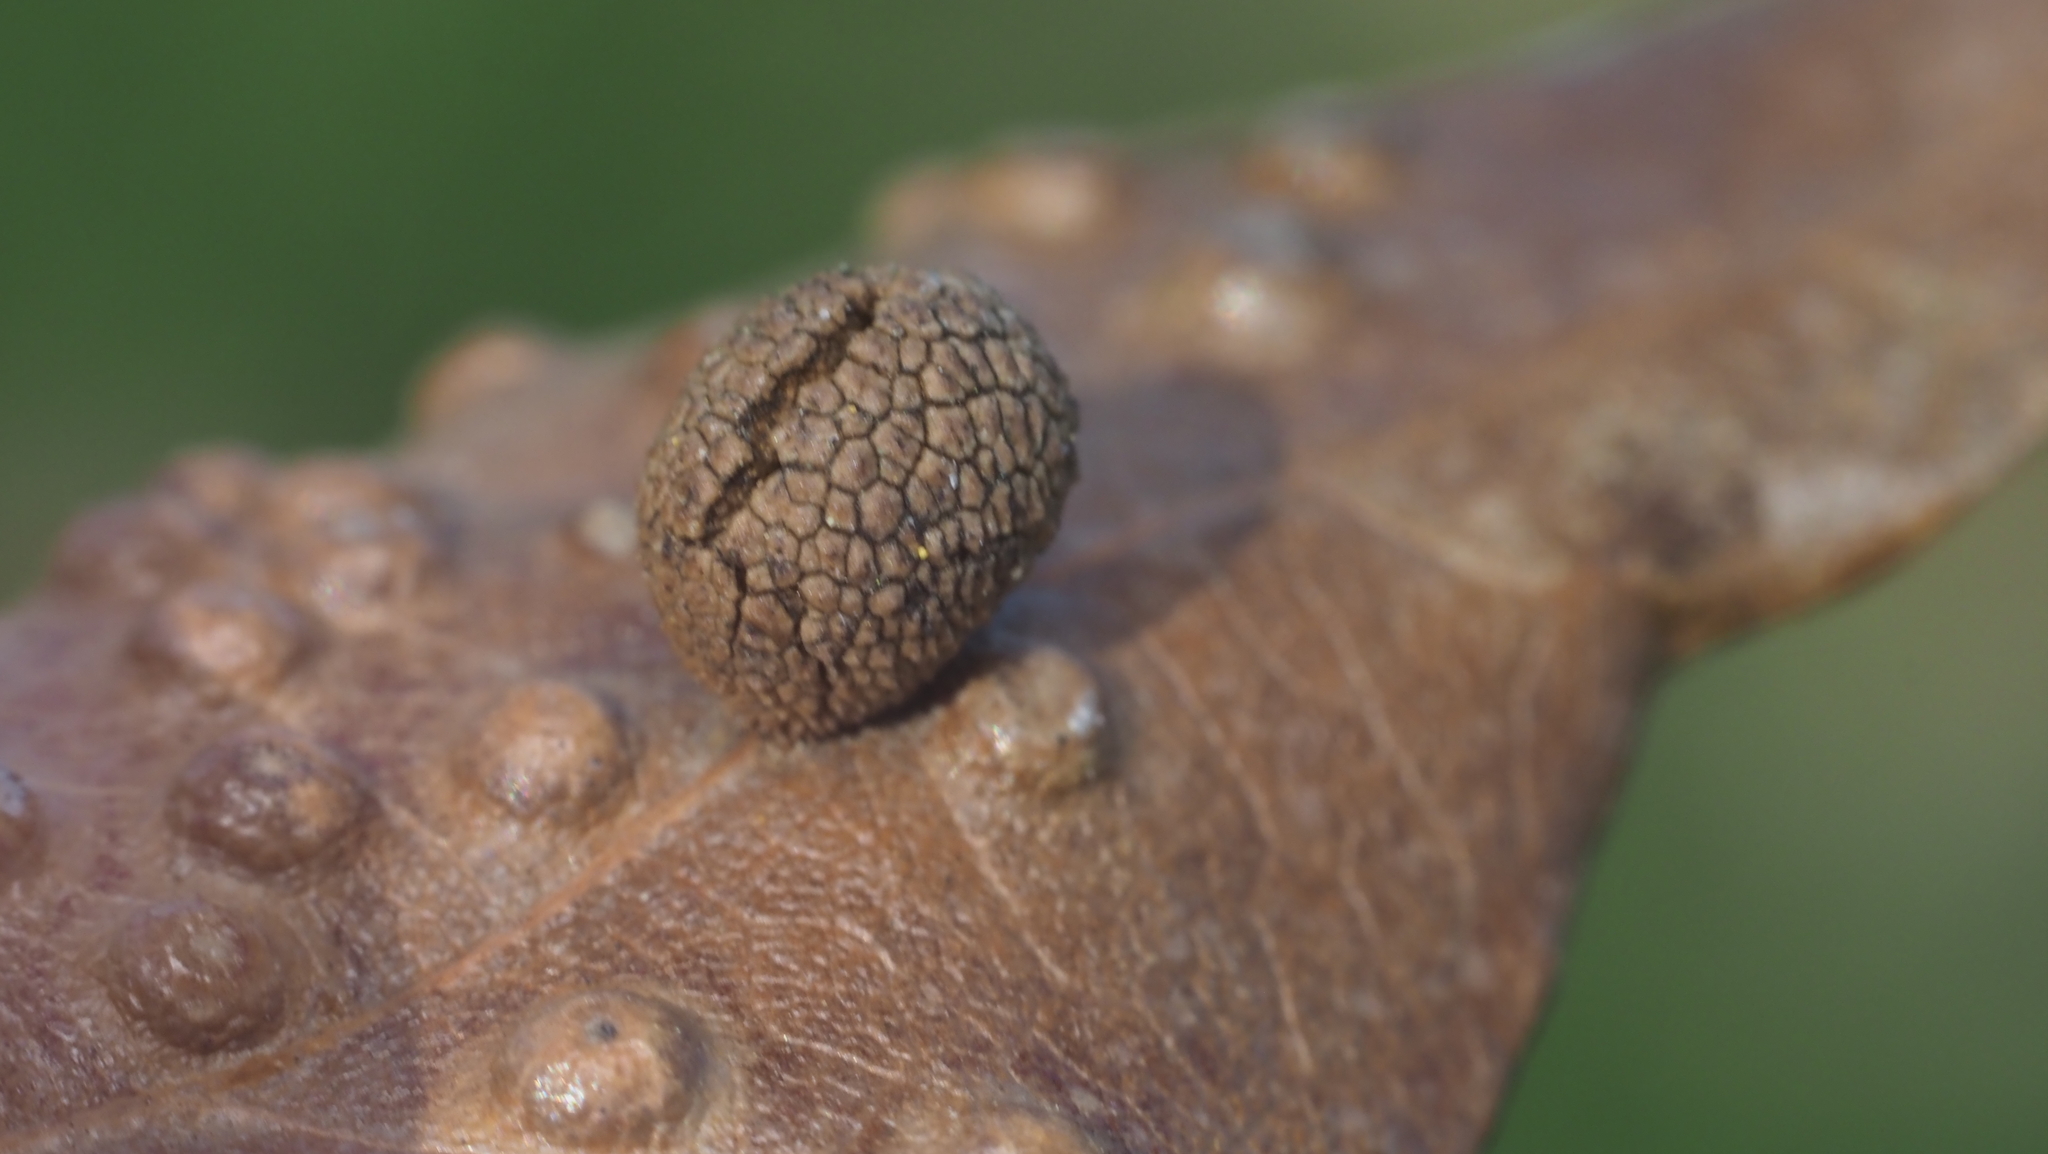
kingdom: Animalia
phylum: Arthropoda
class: Insecta
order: Hymenoptera
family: Cynipidae
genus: Acraspis
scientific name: Acraspis quercushirta
